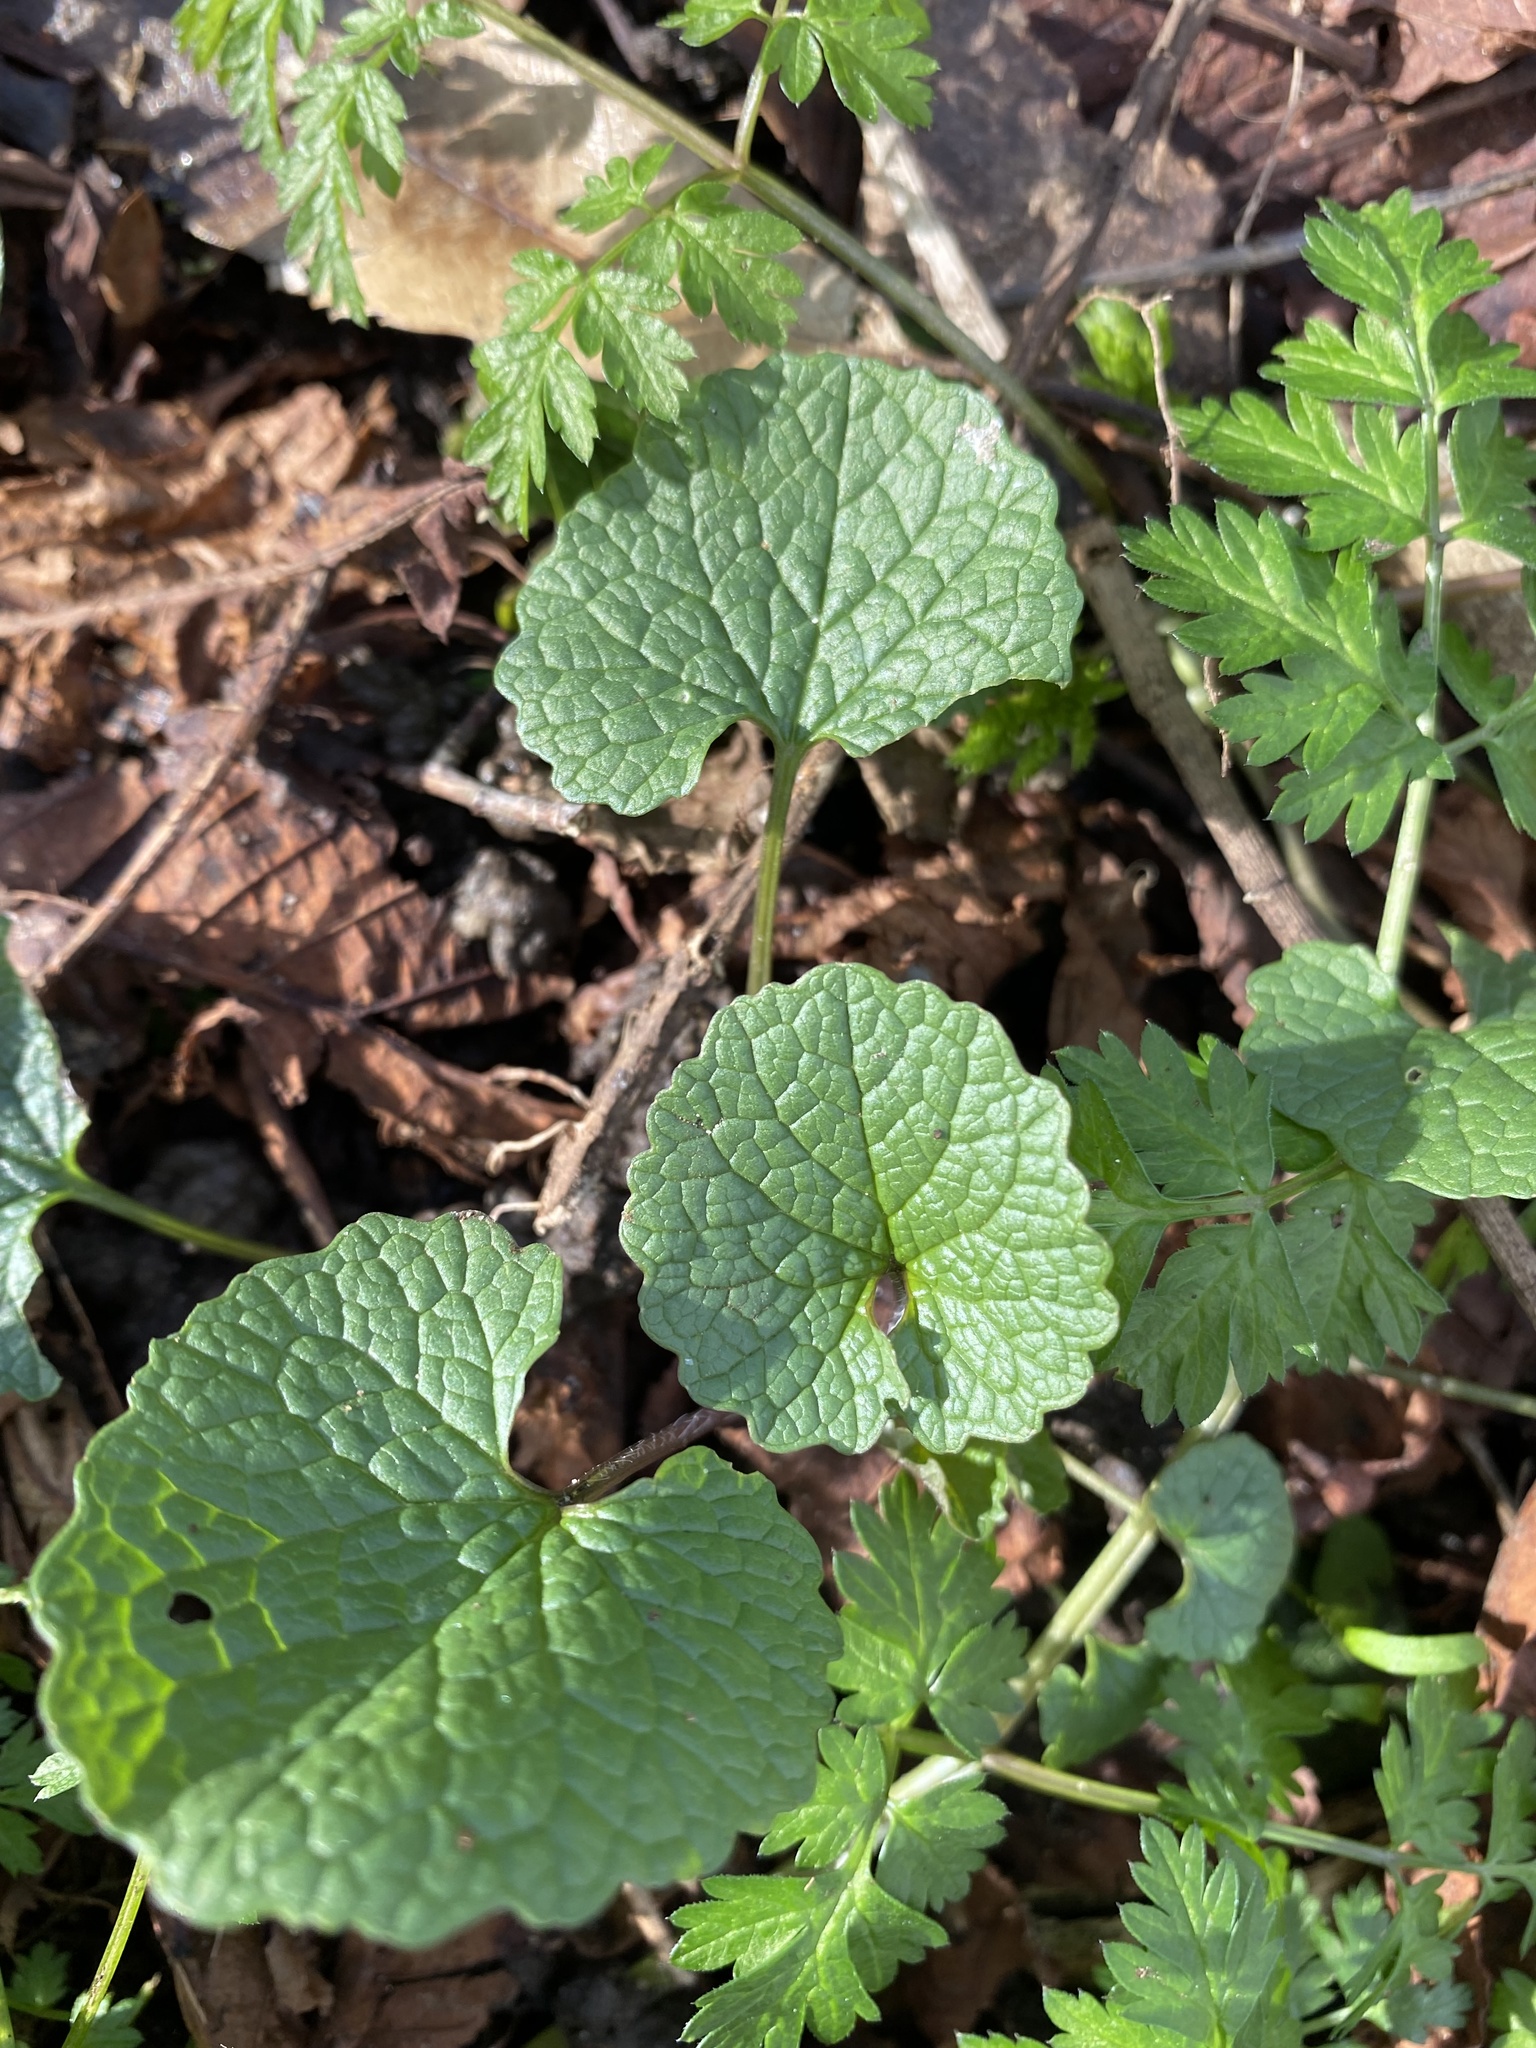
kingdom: Plantae
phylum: Tracheophyta
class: Magnoliopsida
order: Brassicales
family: Brassicaceae
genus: Alliaria
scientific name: Alliaria petiolata
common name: Garlic mustard
